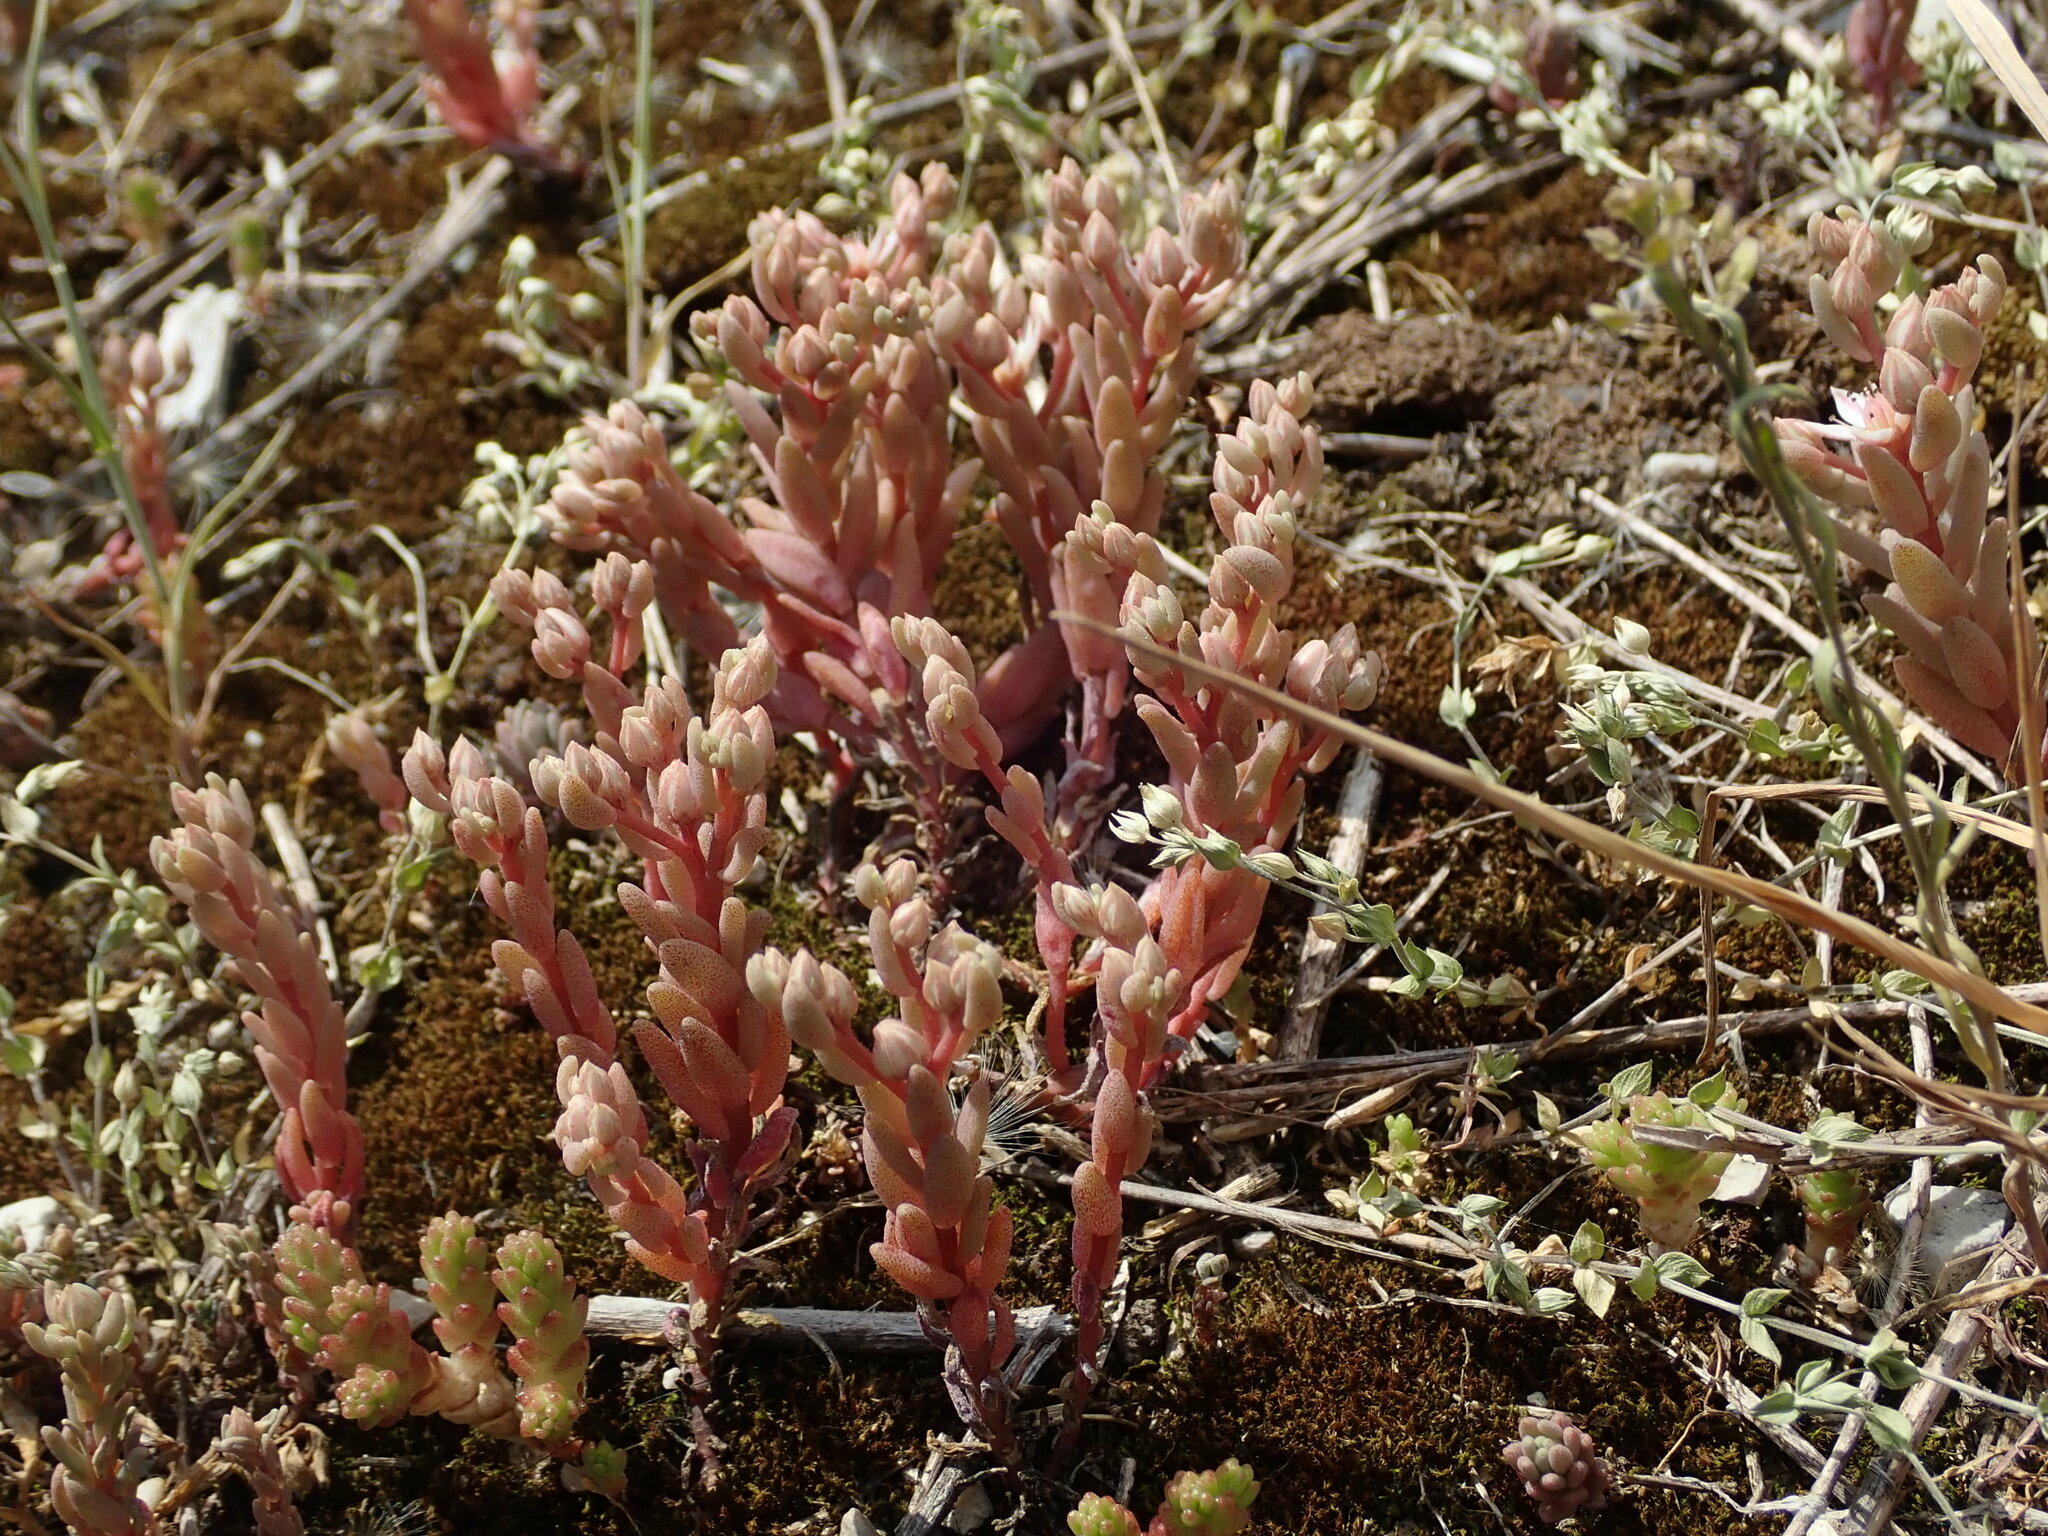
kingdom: Plantae
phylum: Tracheophyta
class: Magnoliopsida
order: Saxifragales
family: Crassulaceae
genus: Sedum
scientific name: Sedum hispanicum
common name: Spanish stonecrop
